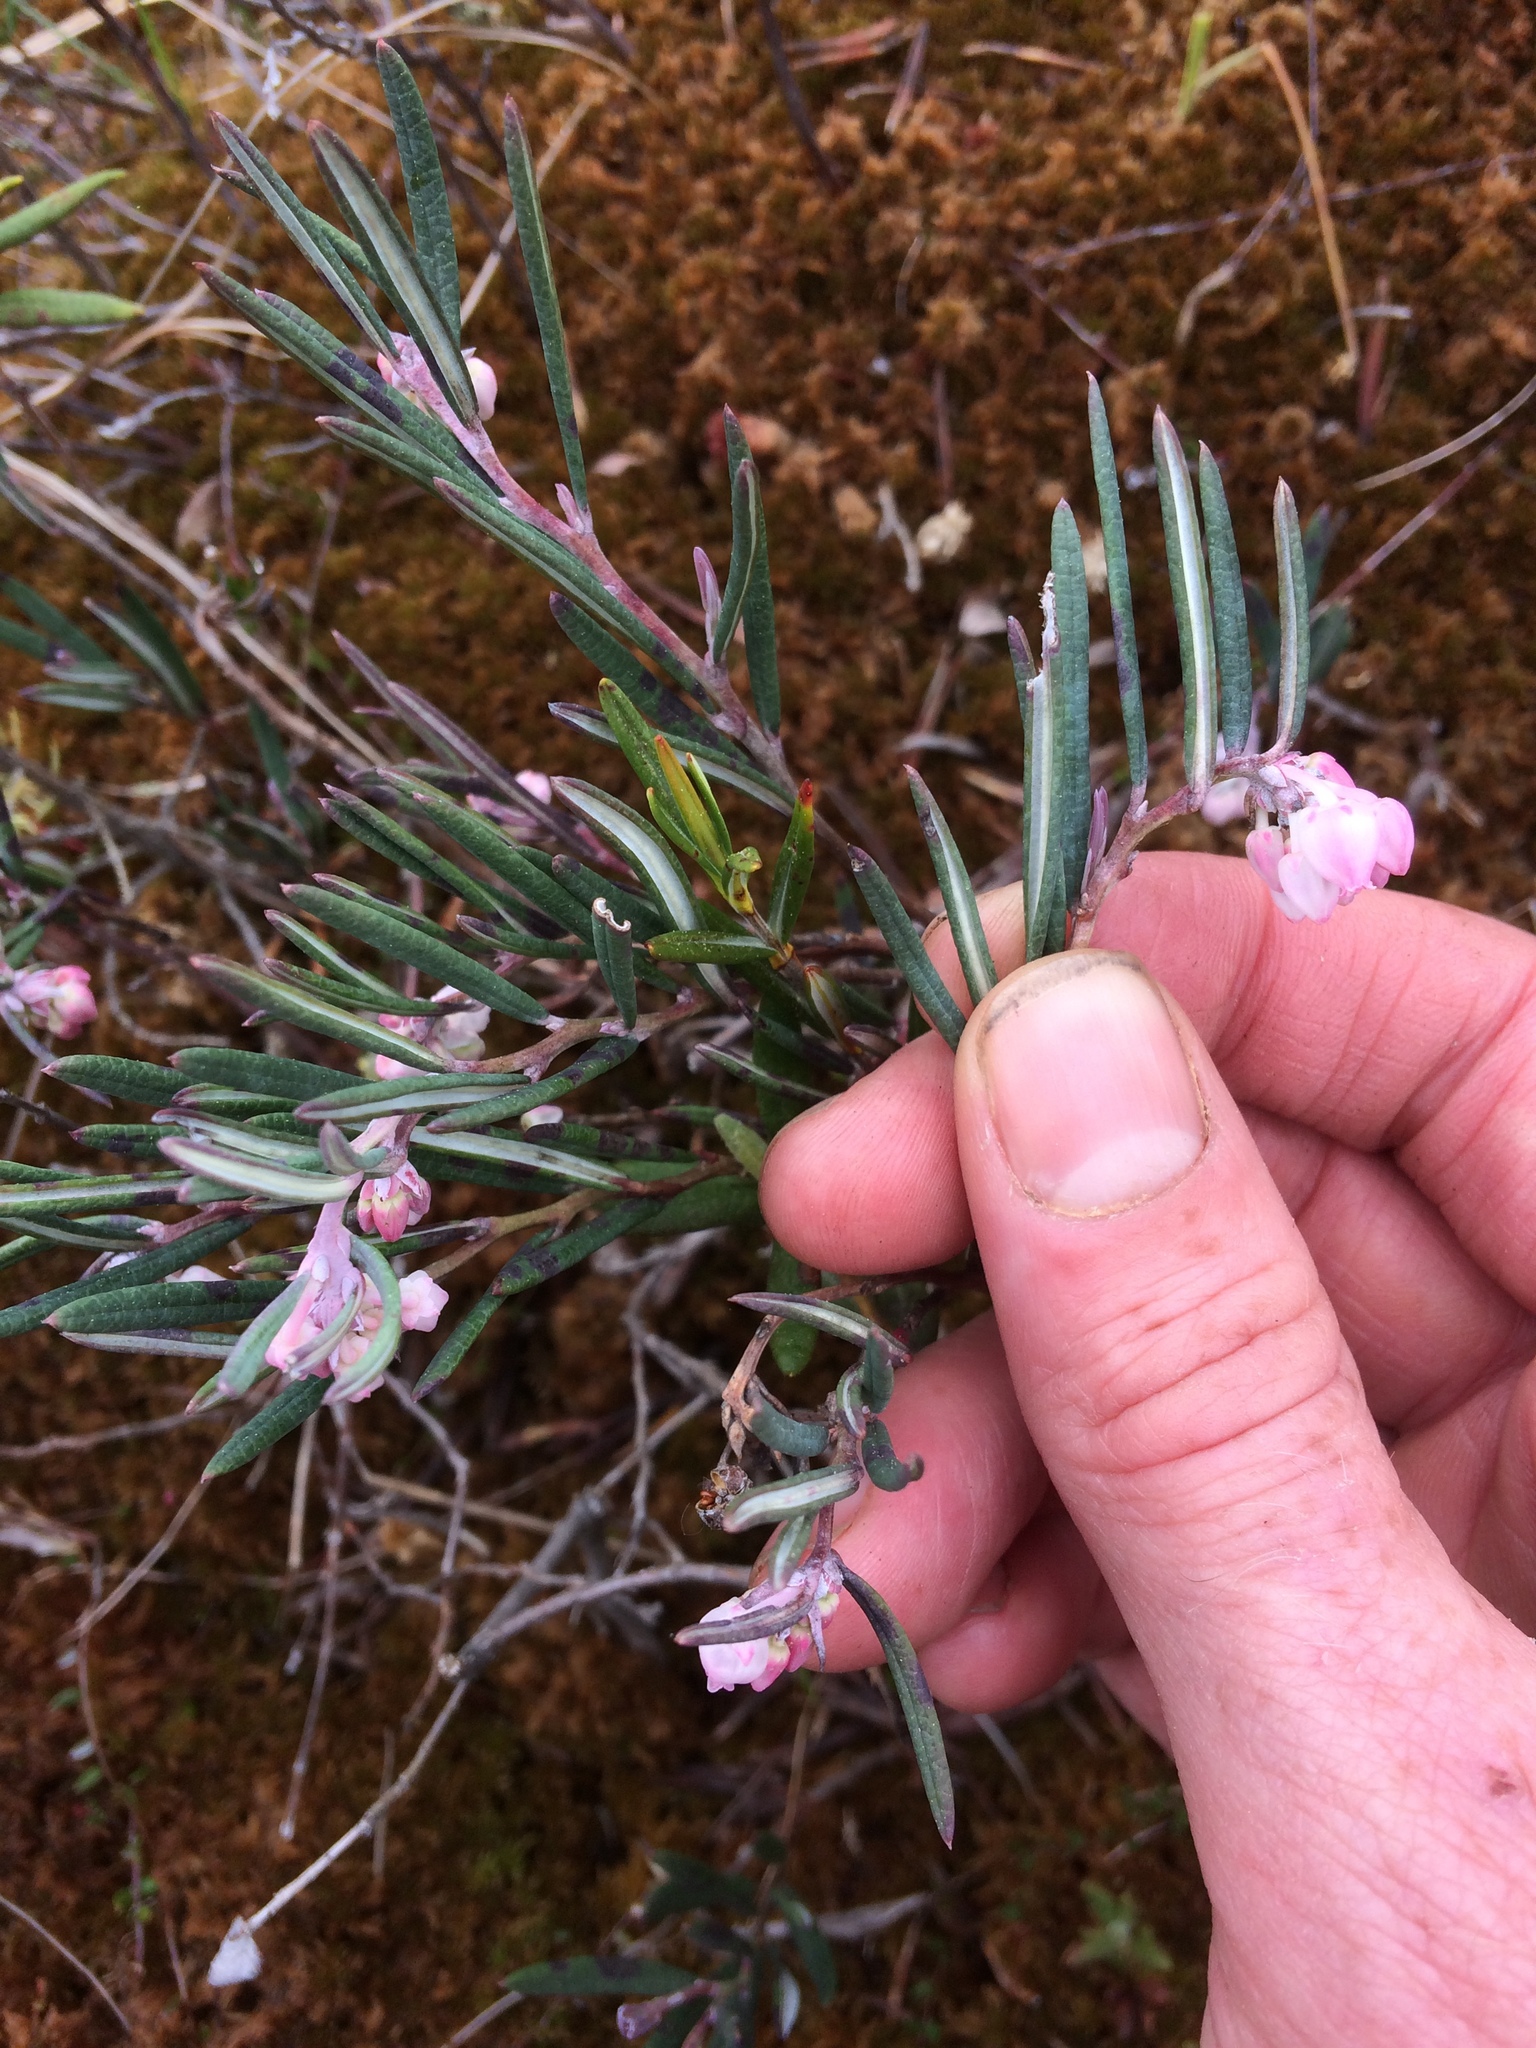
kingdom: Plantae
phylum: Tracheophyta
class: Magnoliopsida
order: Ericales
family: Ericaceae
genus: Andromeda
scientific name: Andromeda polifolia
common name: Bog-rosemary
